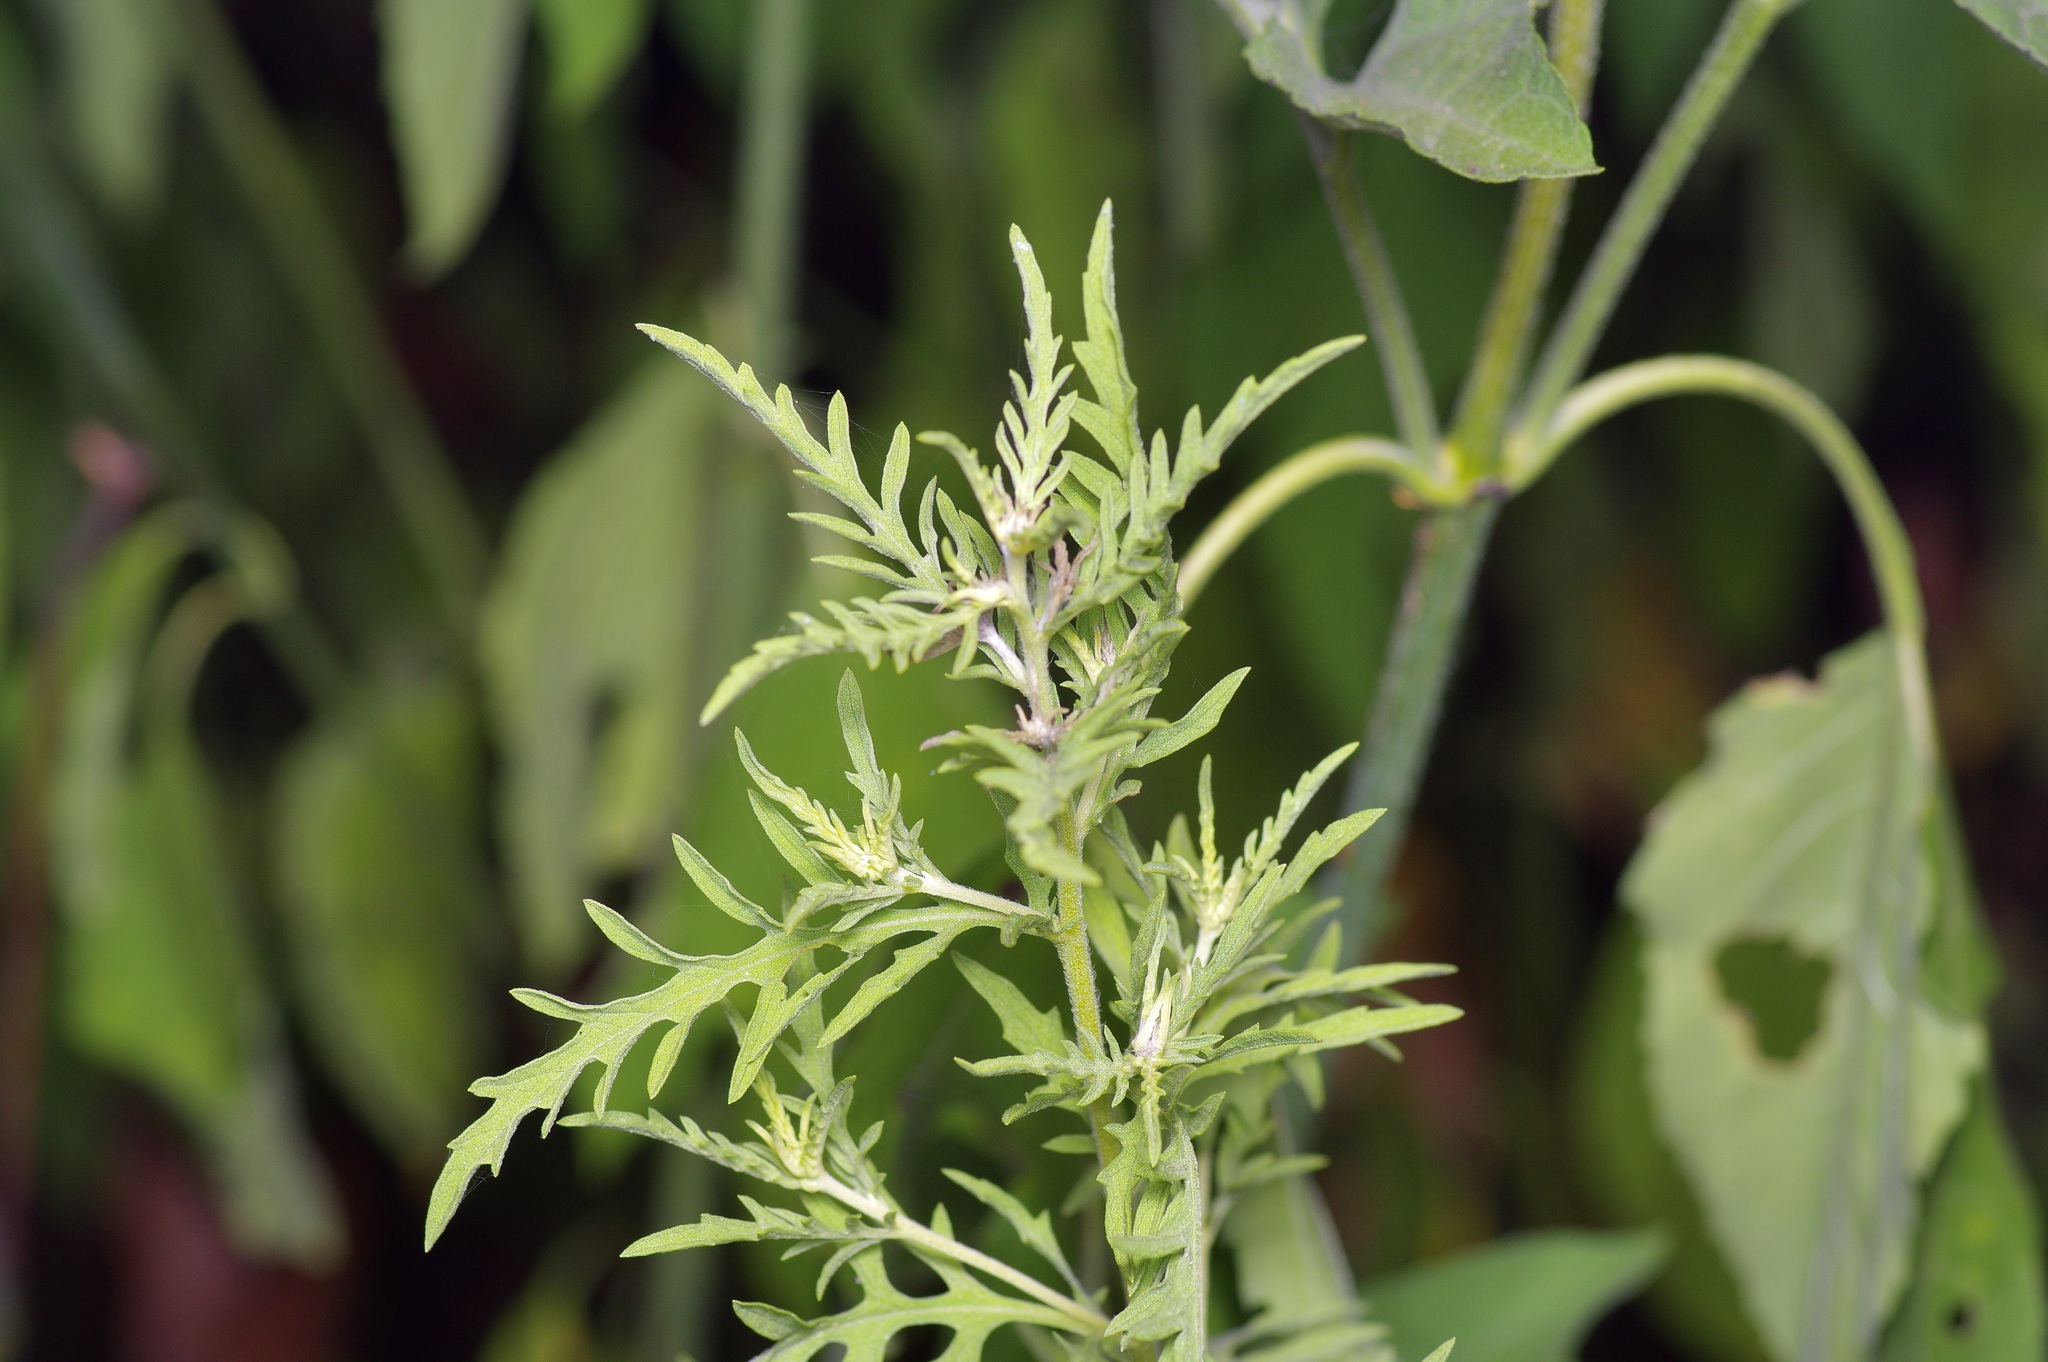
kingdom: Plantae
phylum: Tracheophyta
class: Magnoliopsida
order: Asterales
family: Asteraceae
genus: Ambrosia
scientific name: Ambrosia psilostachya
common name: Perennial ragweed
